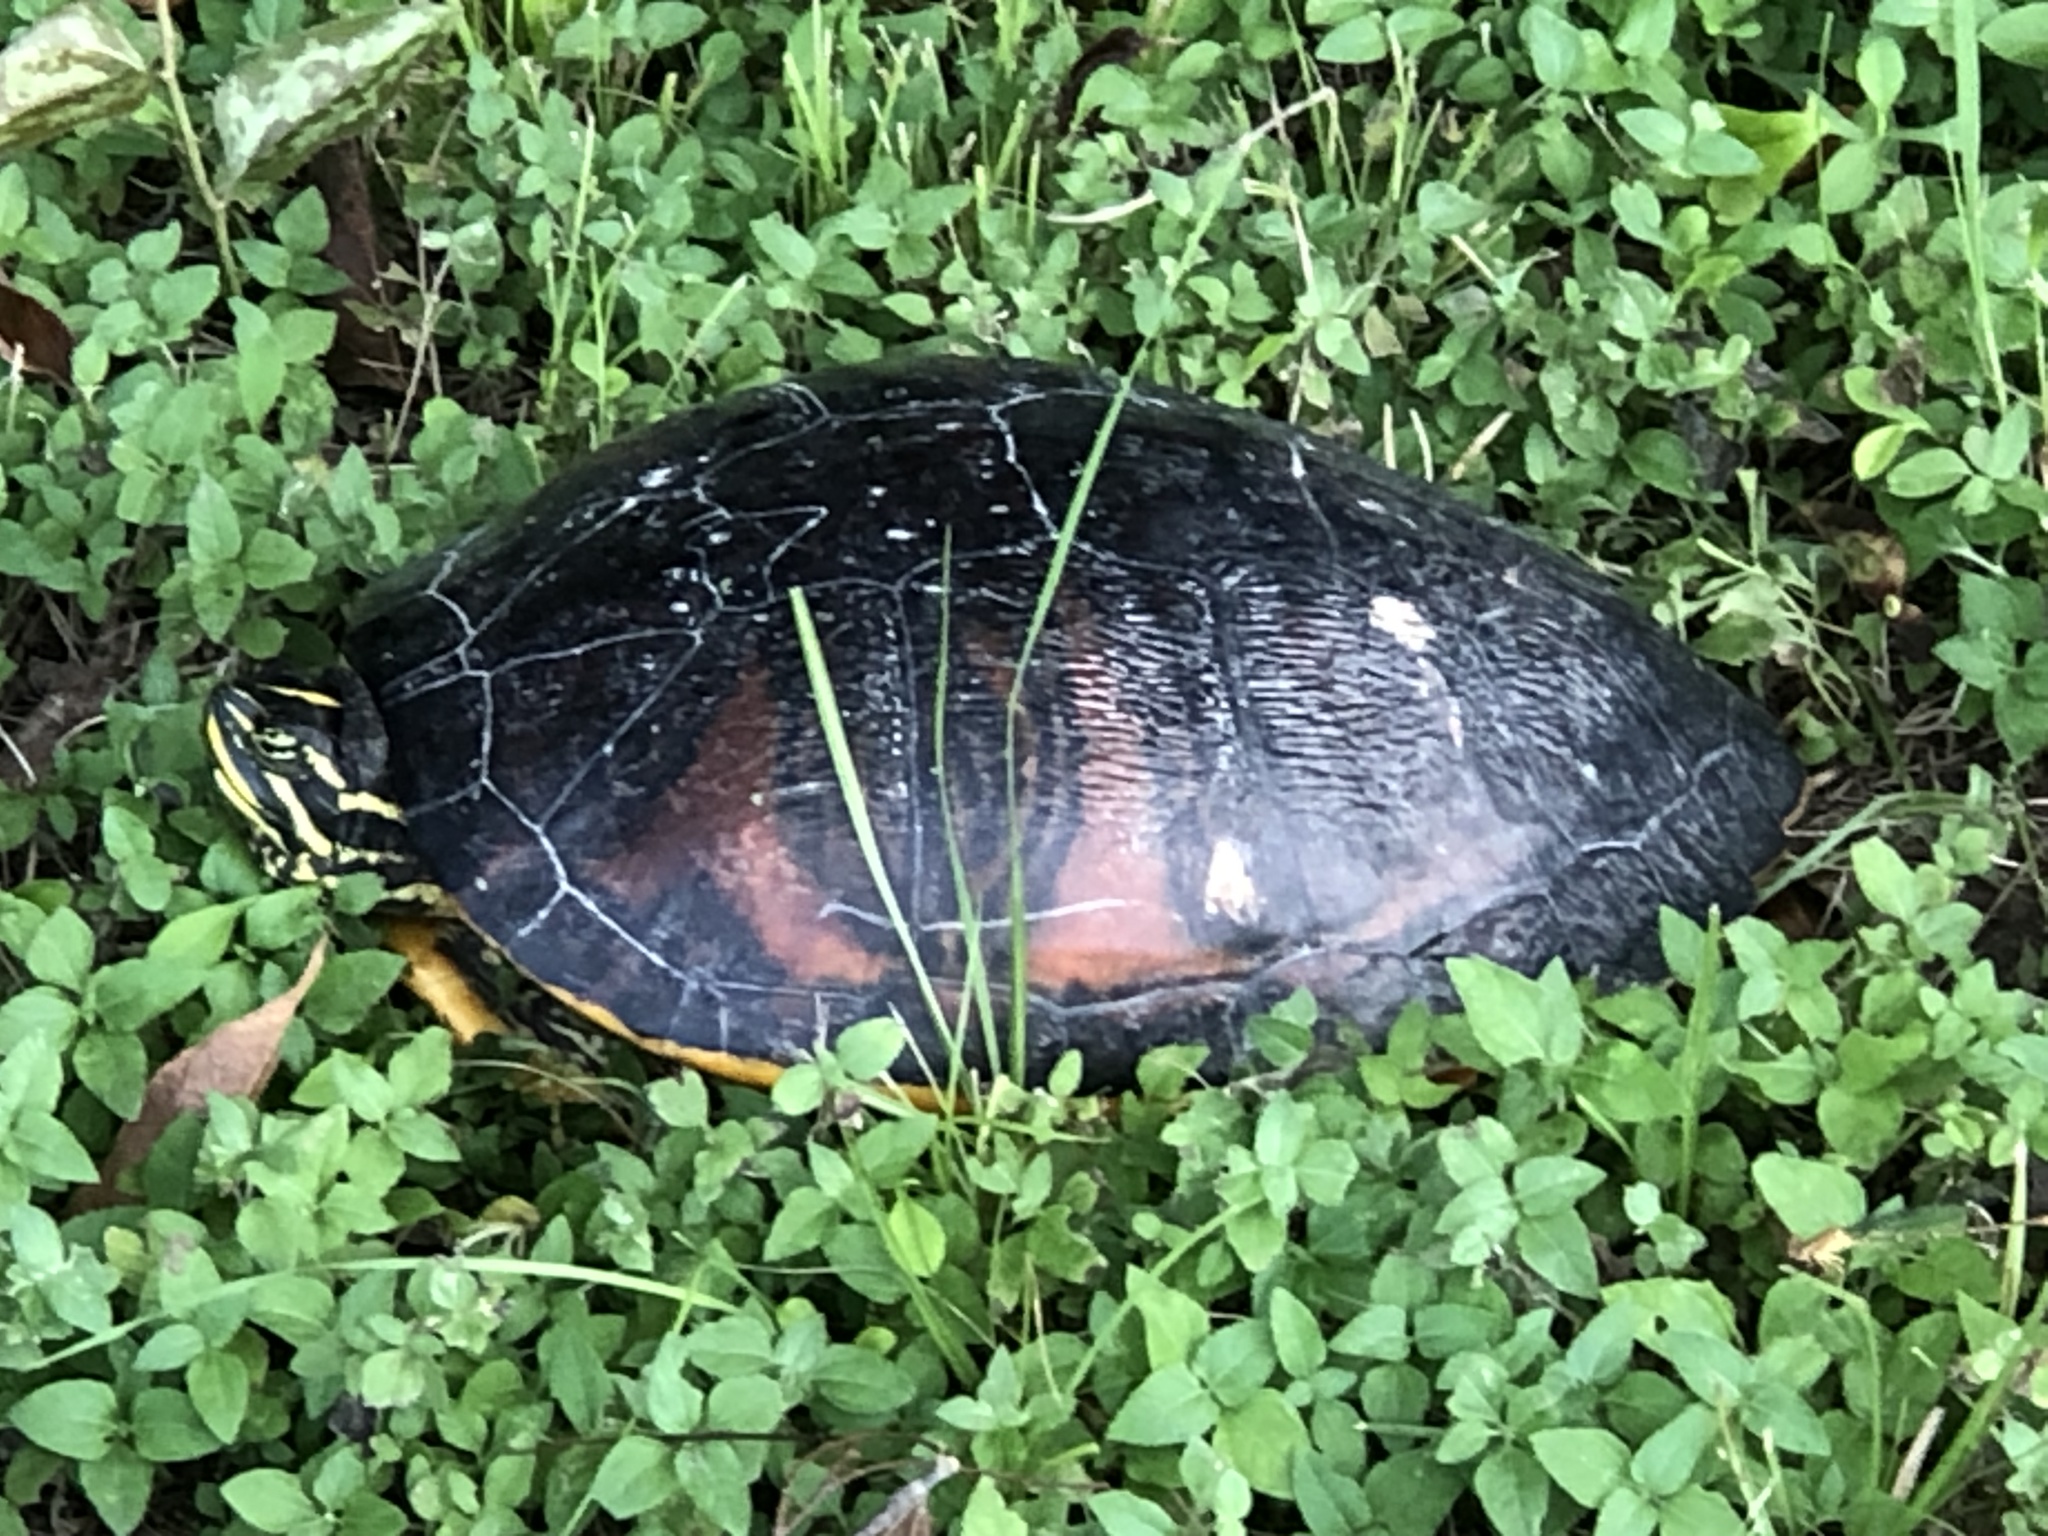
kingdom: Animalia
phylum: Chordata
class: Testudines
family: Emydidae
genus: Pseudemys
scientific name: Pseudemys nelsoni
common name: Florida red-bellied turtle
